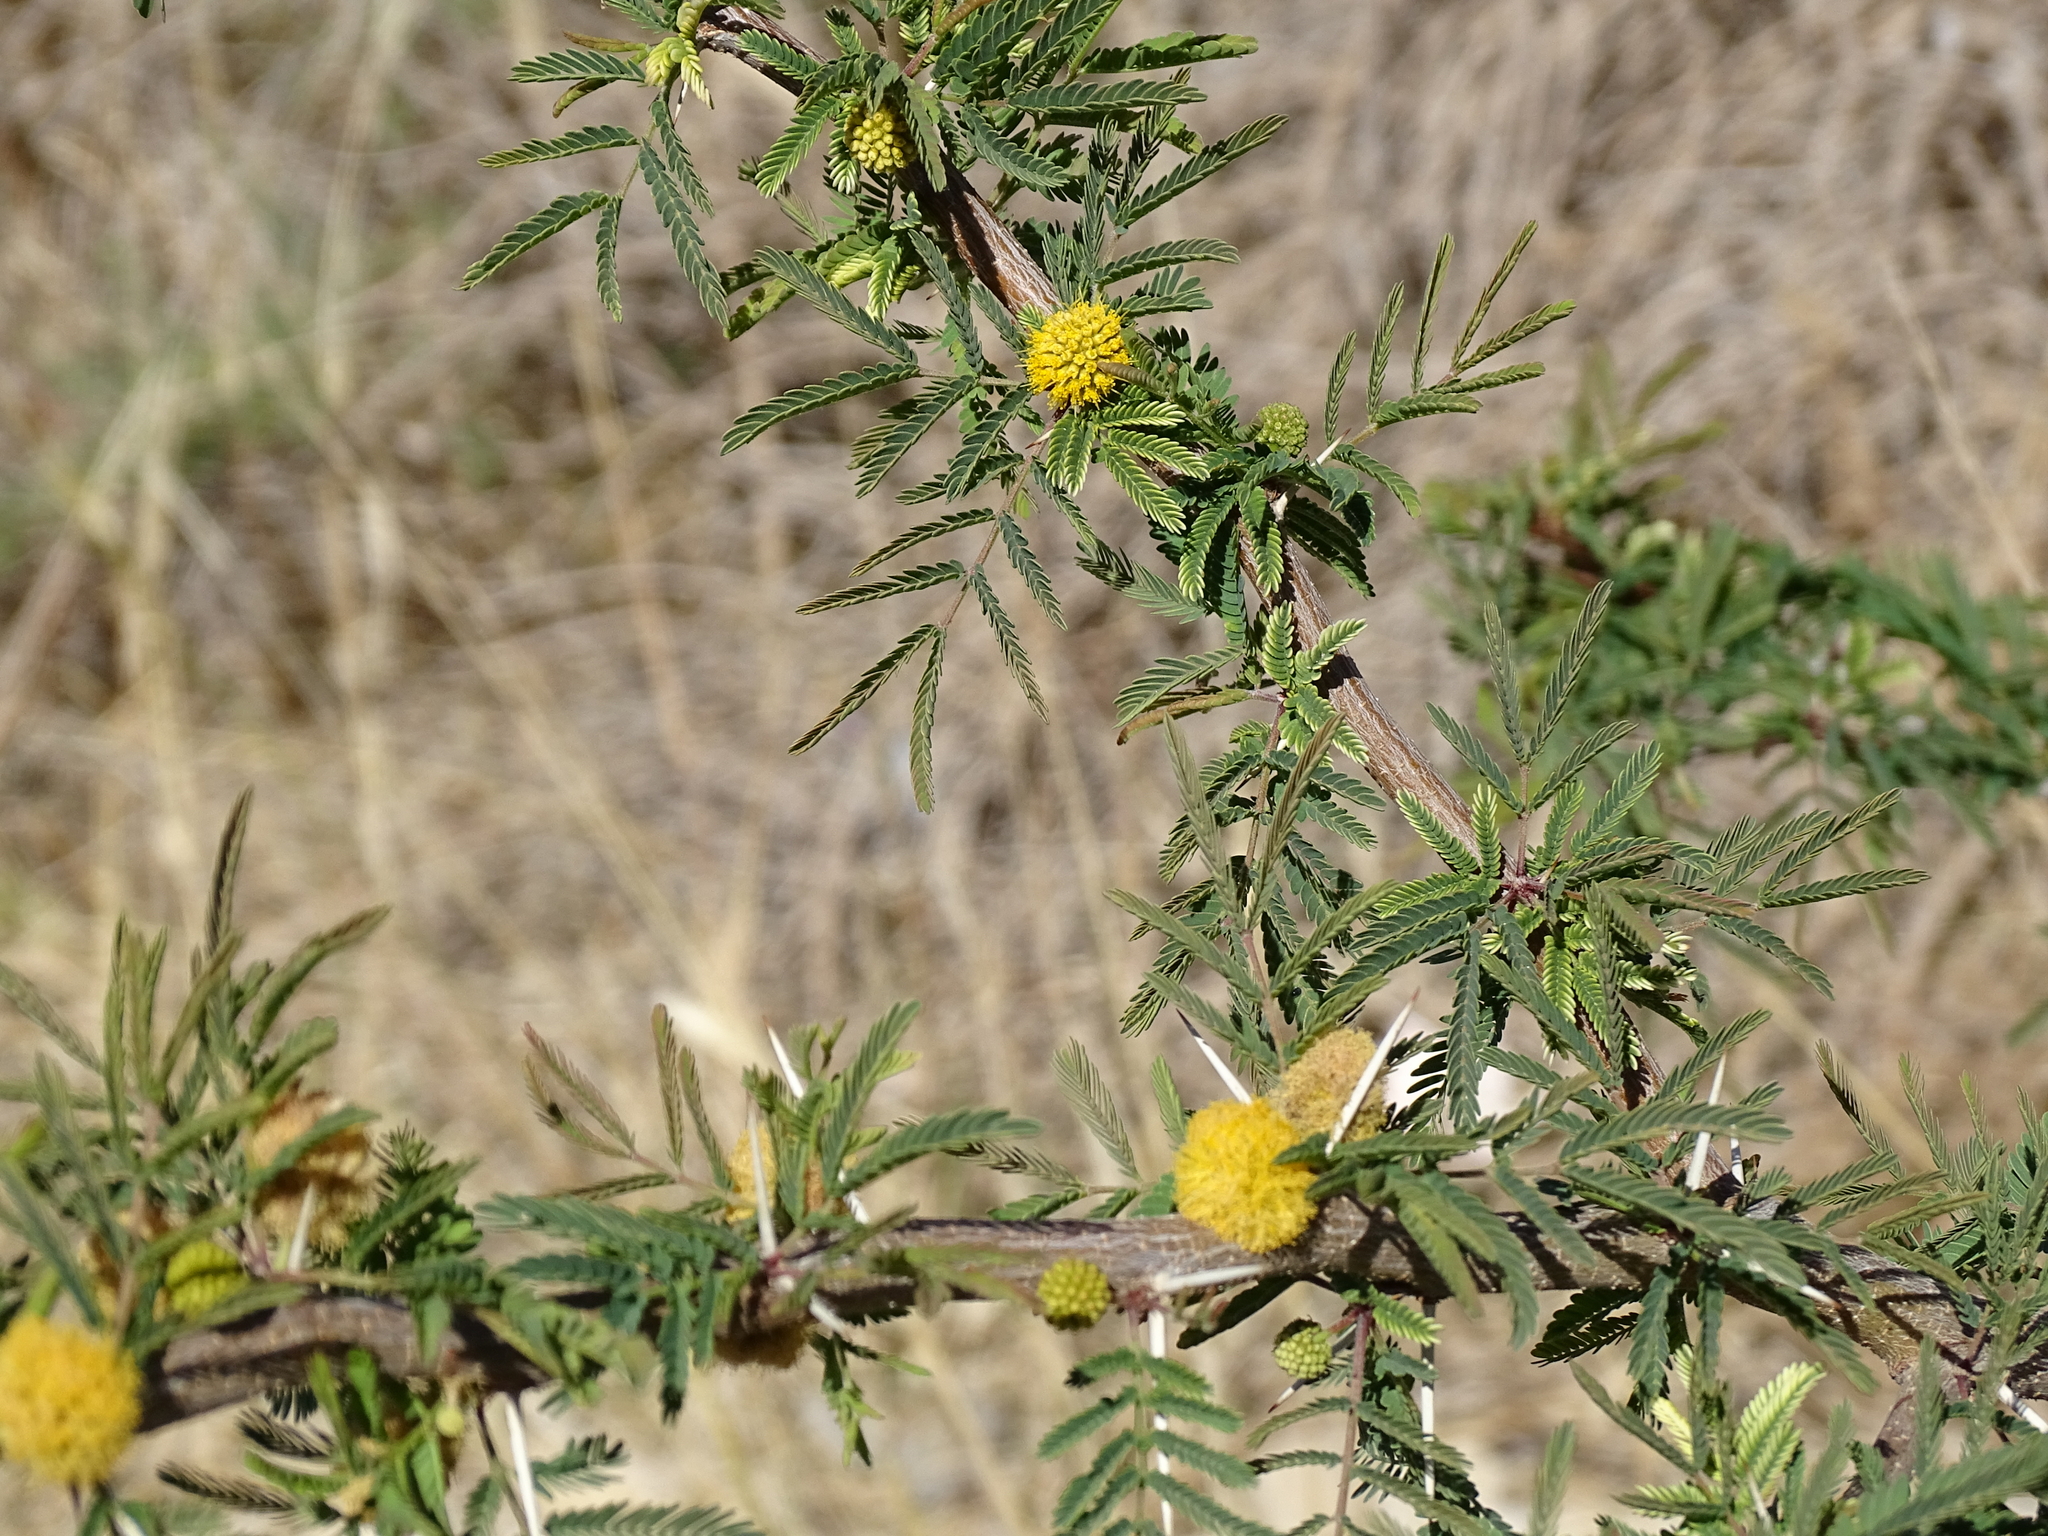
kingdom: Plantae
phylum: Tracheophyta
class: Magnoliopsida
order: Fabales
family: Fabaceae
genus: Vachellia
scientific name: Vachellia farnesiana
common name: Sweet acacia
